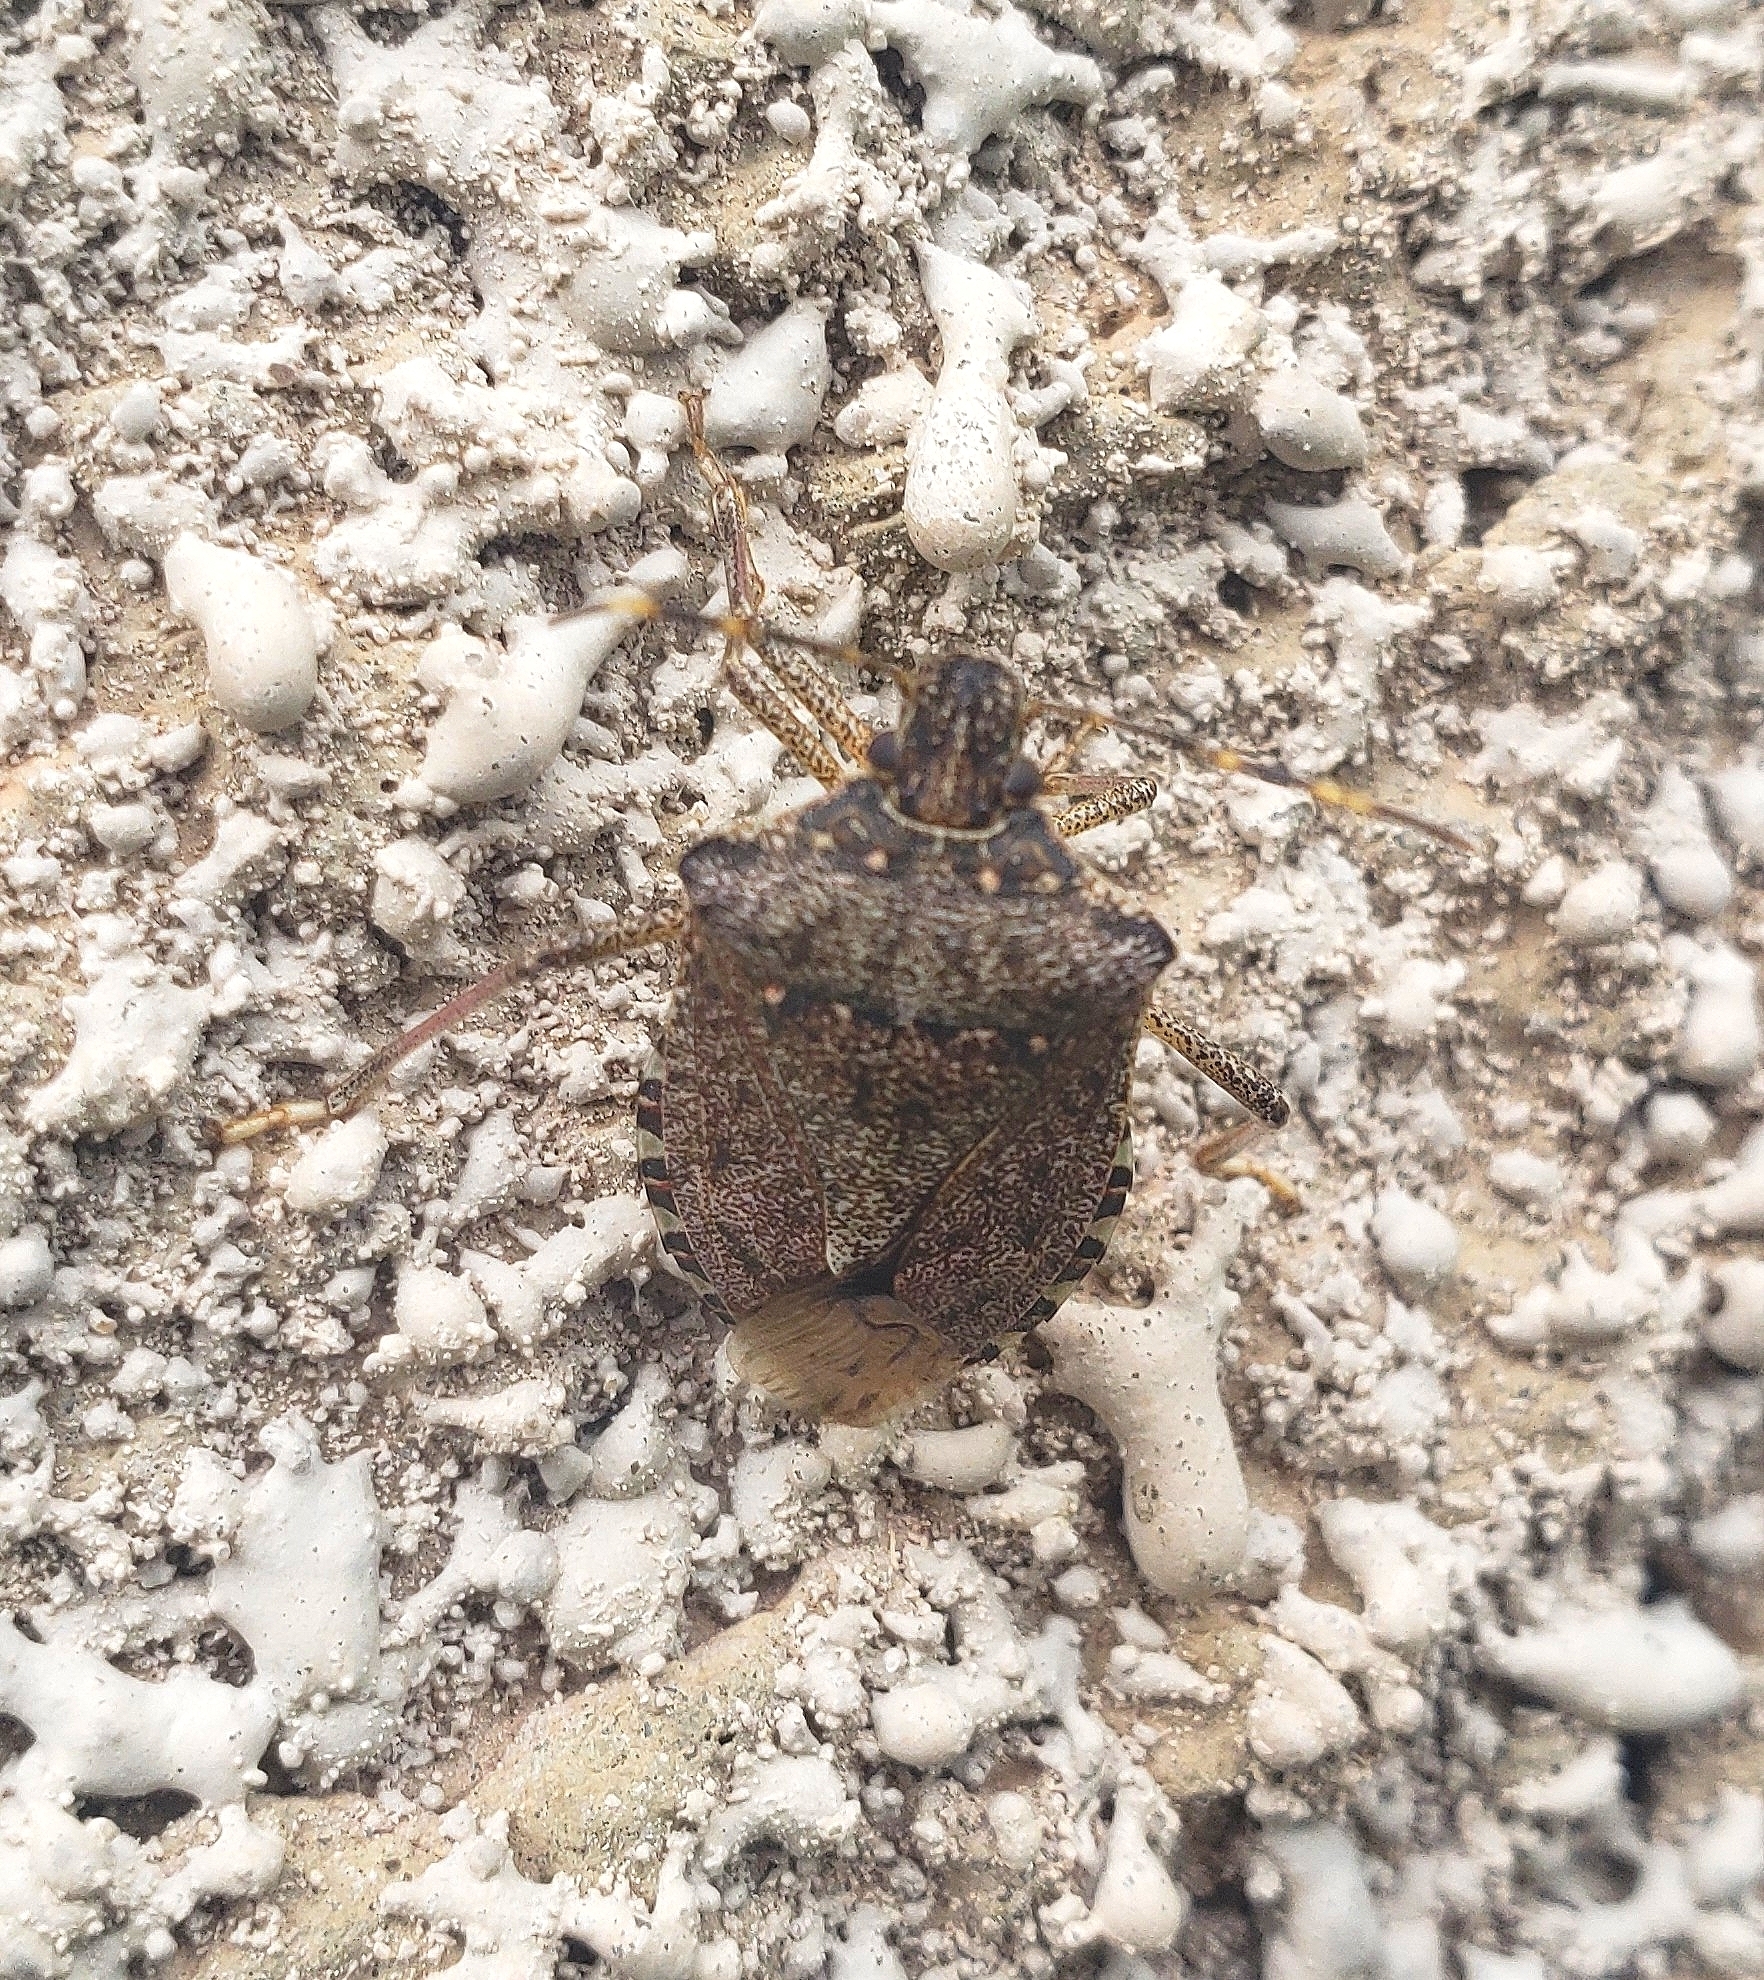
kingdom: Animalia
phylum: Arthropoda
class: Insecta
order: Hemiptera
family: Pentatomidae
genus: Halyomorpha
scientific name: Halyomorpha halys
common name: Brown marmorated stink bug
